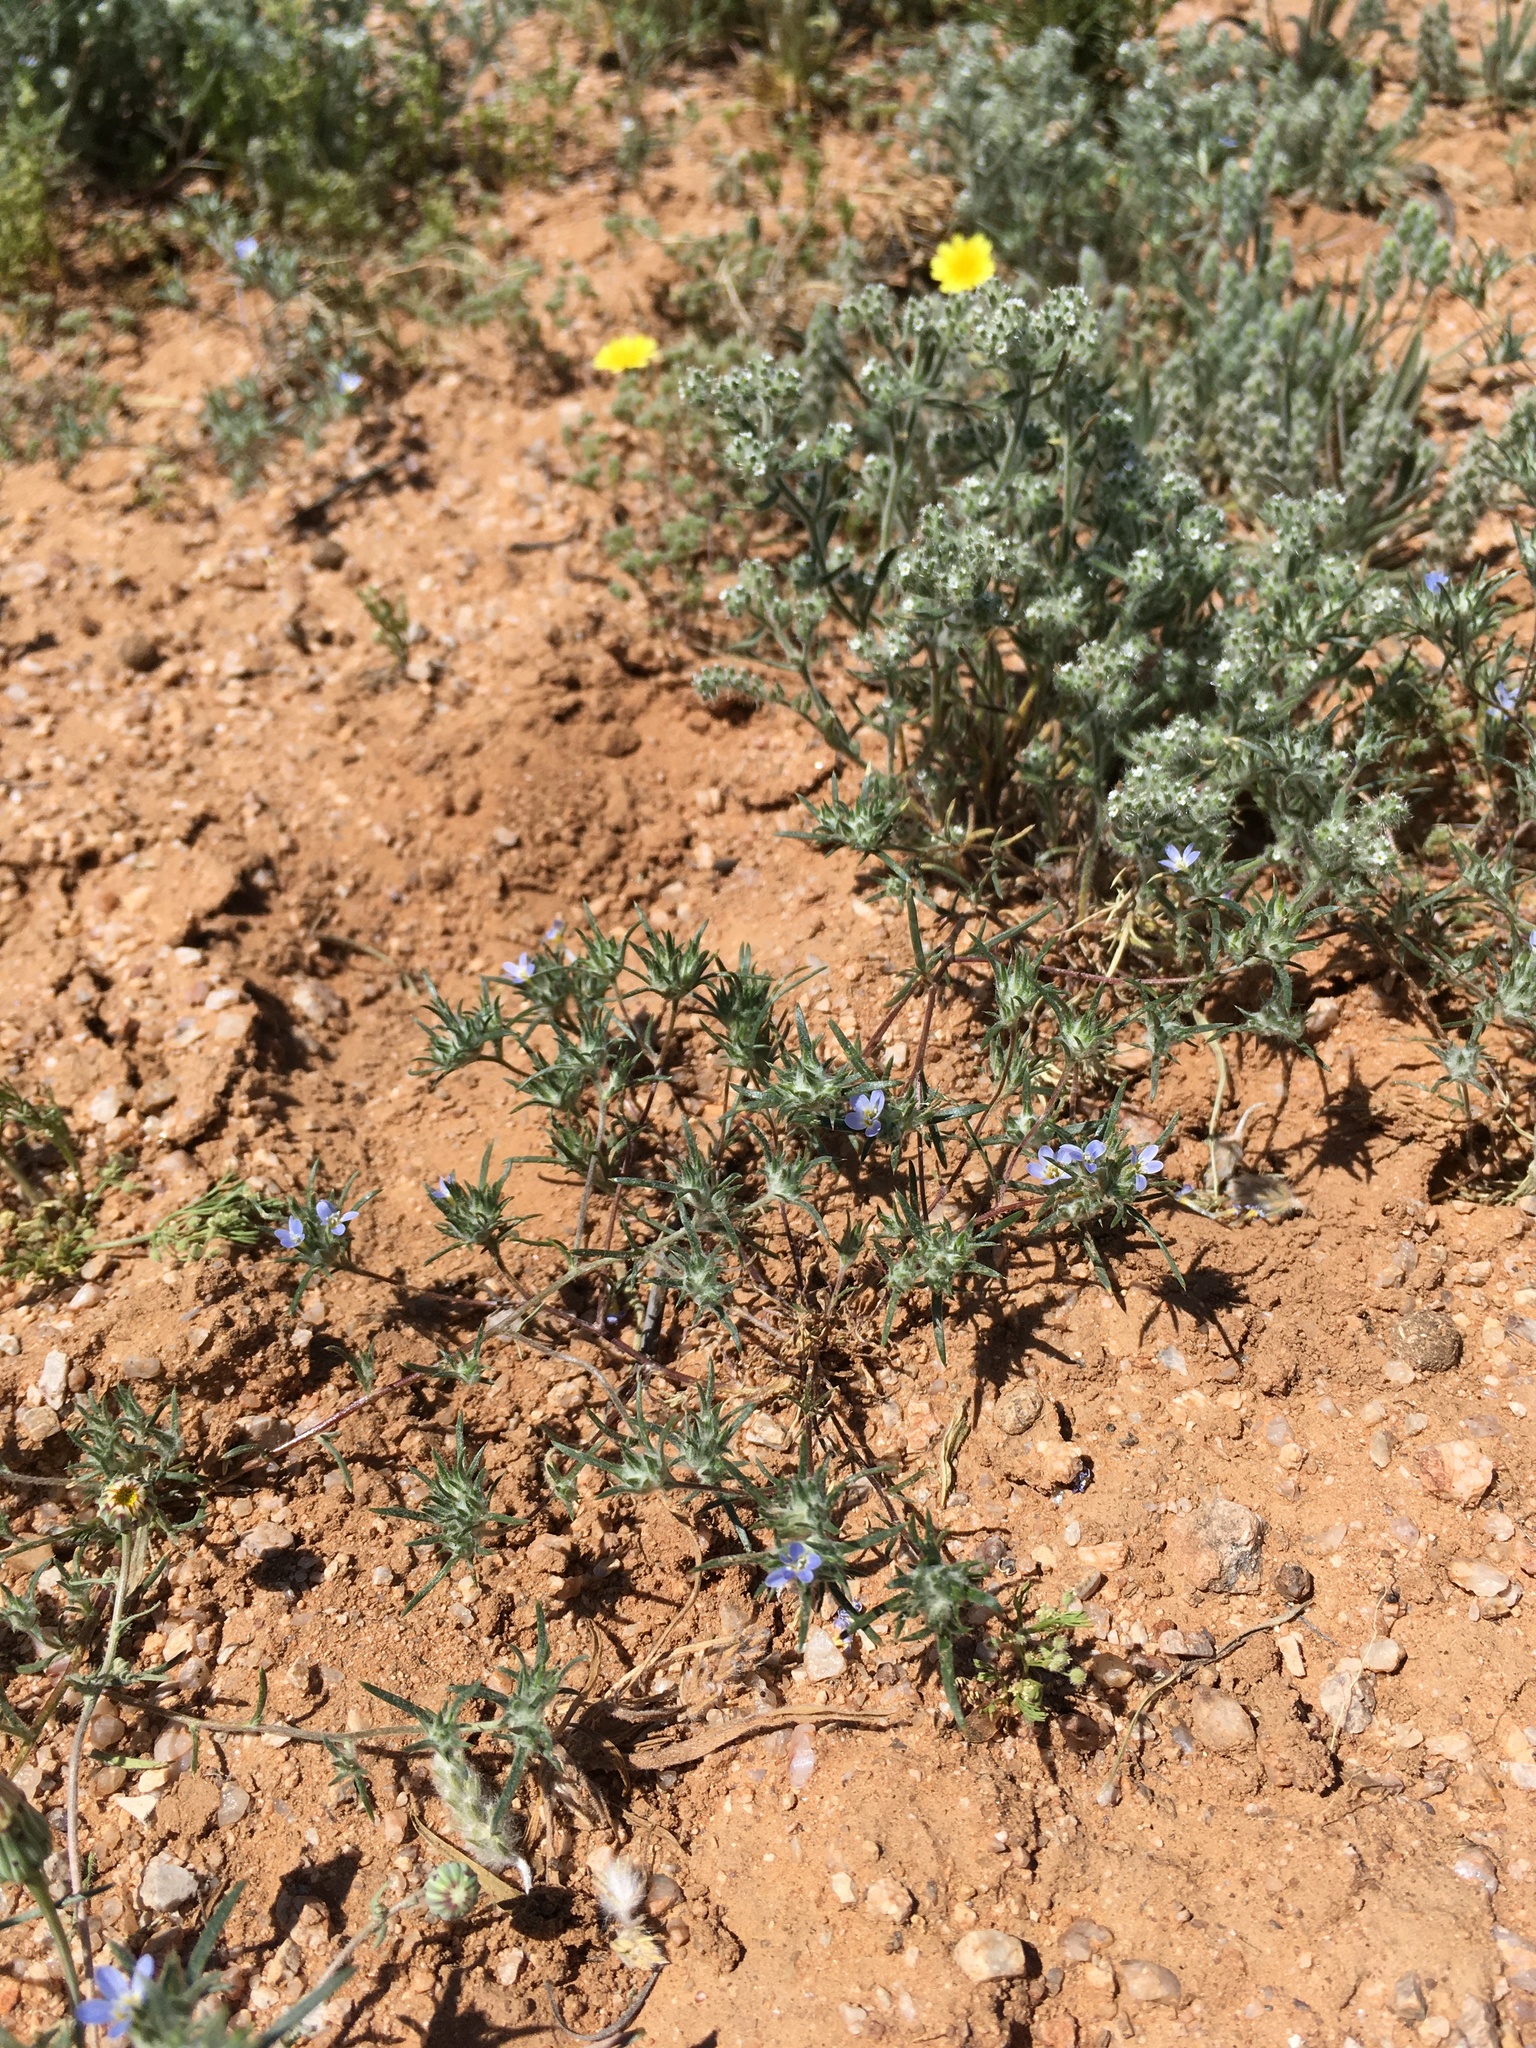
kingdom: Plantae
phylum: Tracheophyta
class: Magnoliopsida
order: Ericales
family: Polemoniaceae
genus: Eriastrum
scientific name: Eriastrum diffusum
